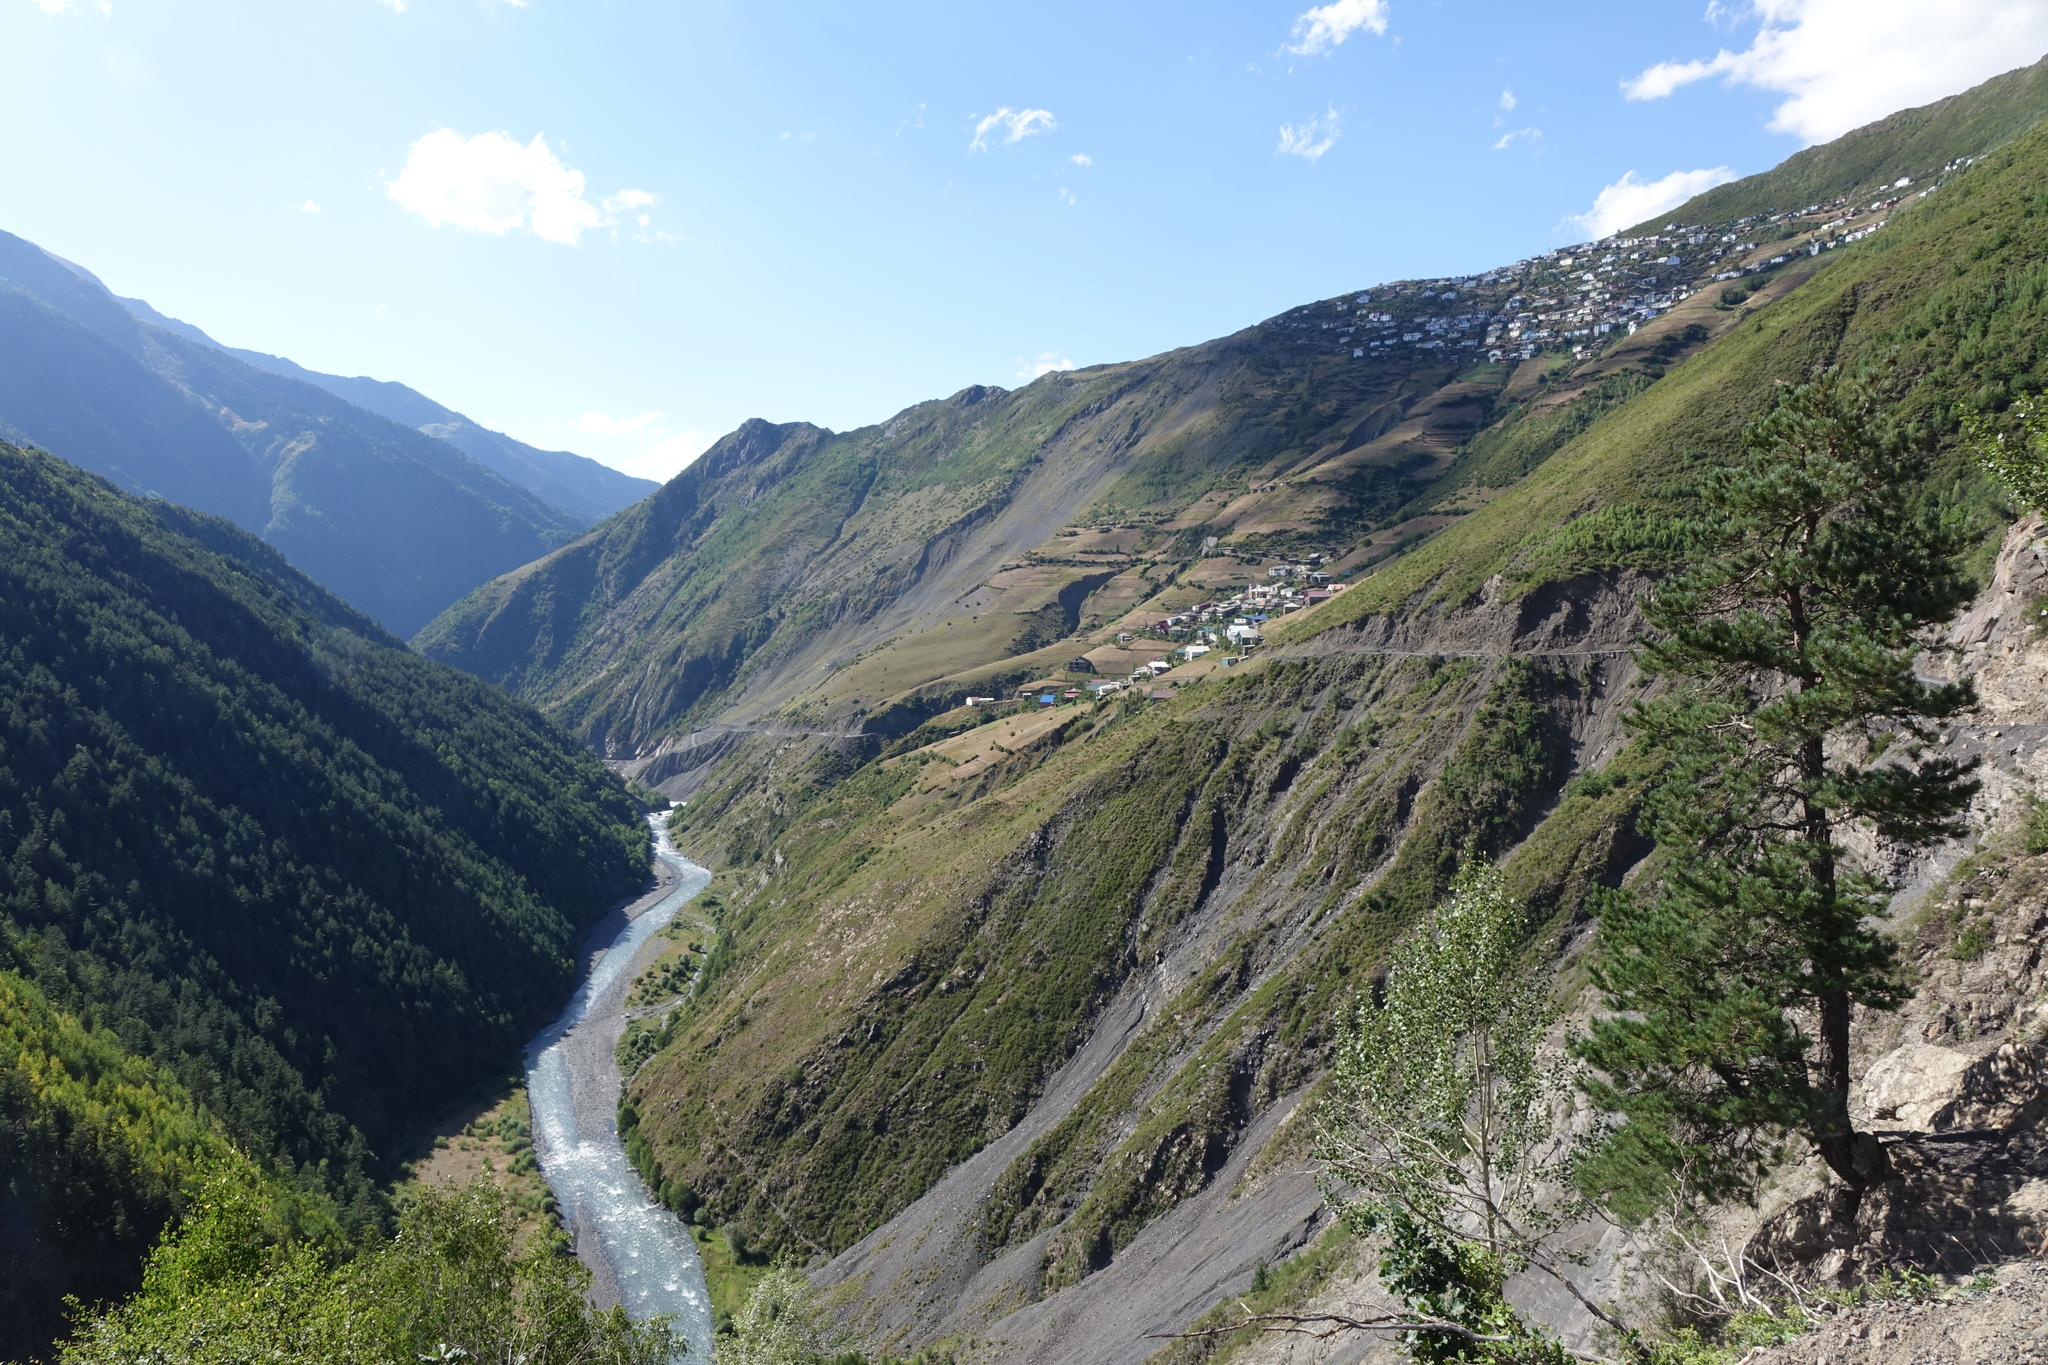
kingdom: Plantae
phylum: Tracheophyta
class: Pinopsida
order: Pinales
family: Pinaceae
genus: Pinus
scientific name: Pinus sylvestris
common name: Scots pine
